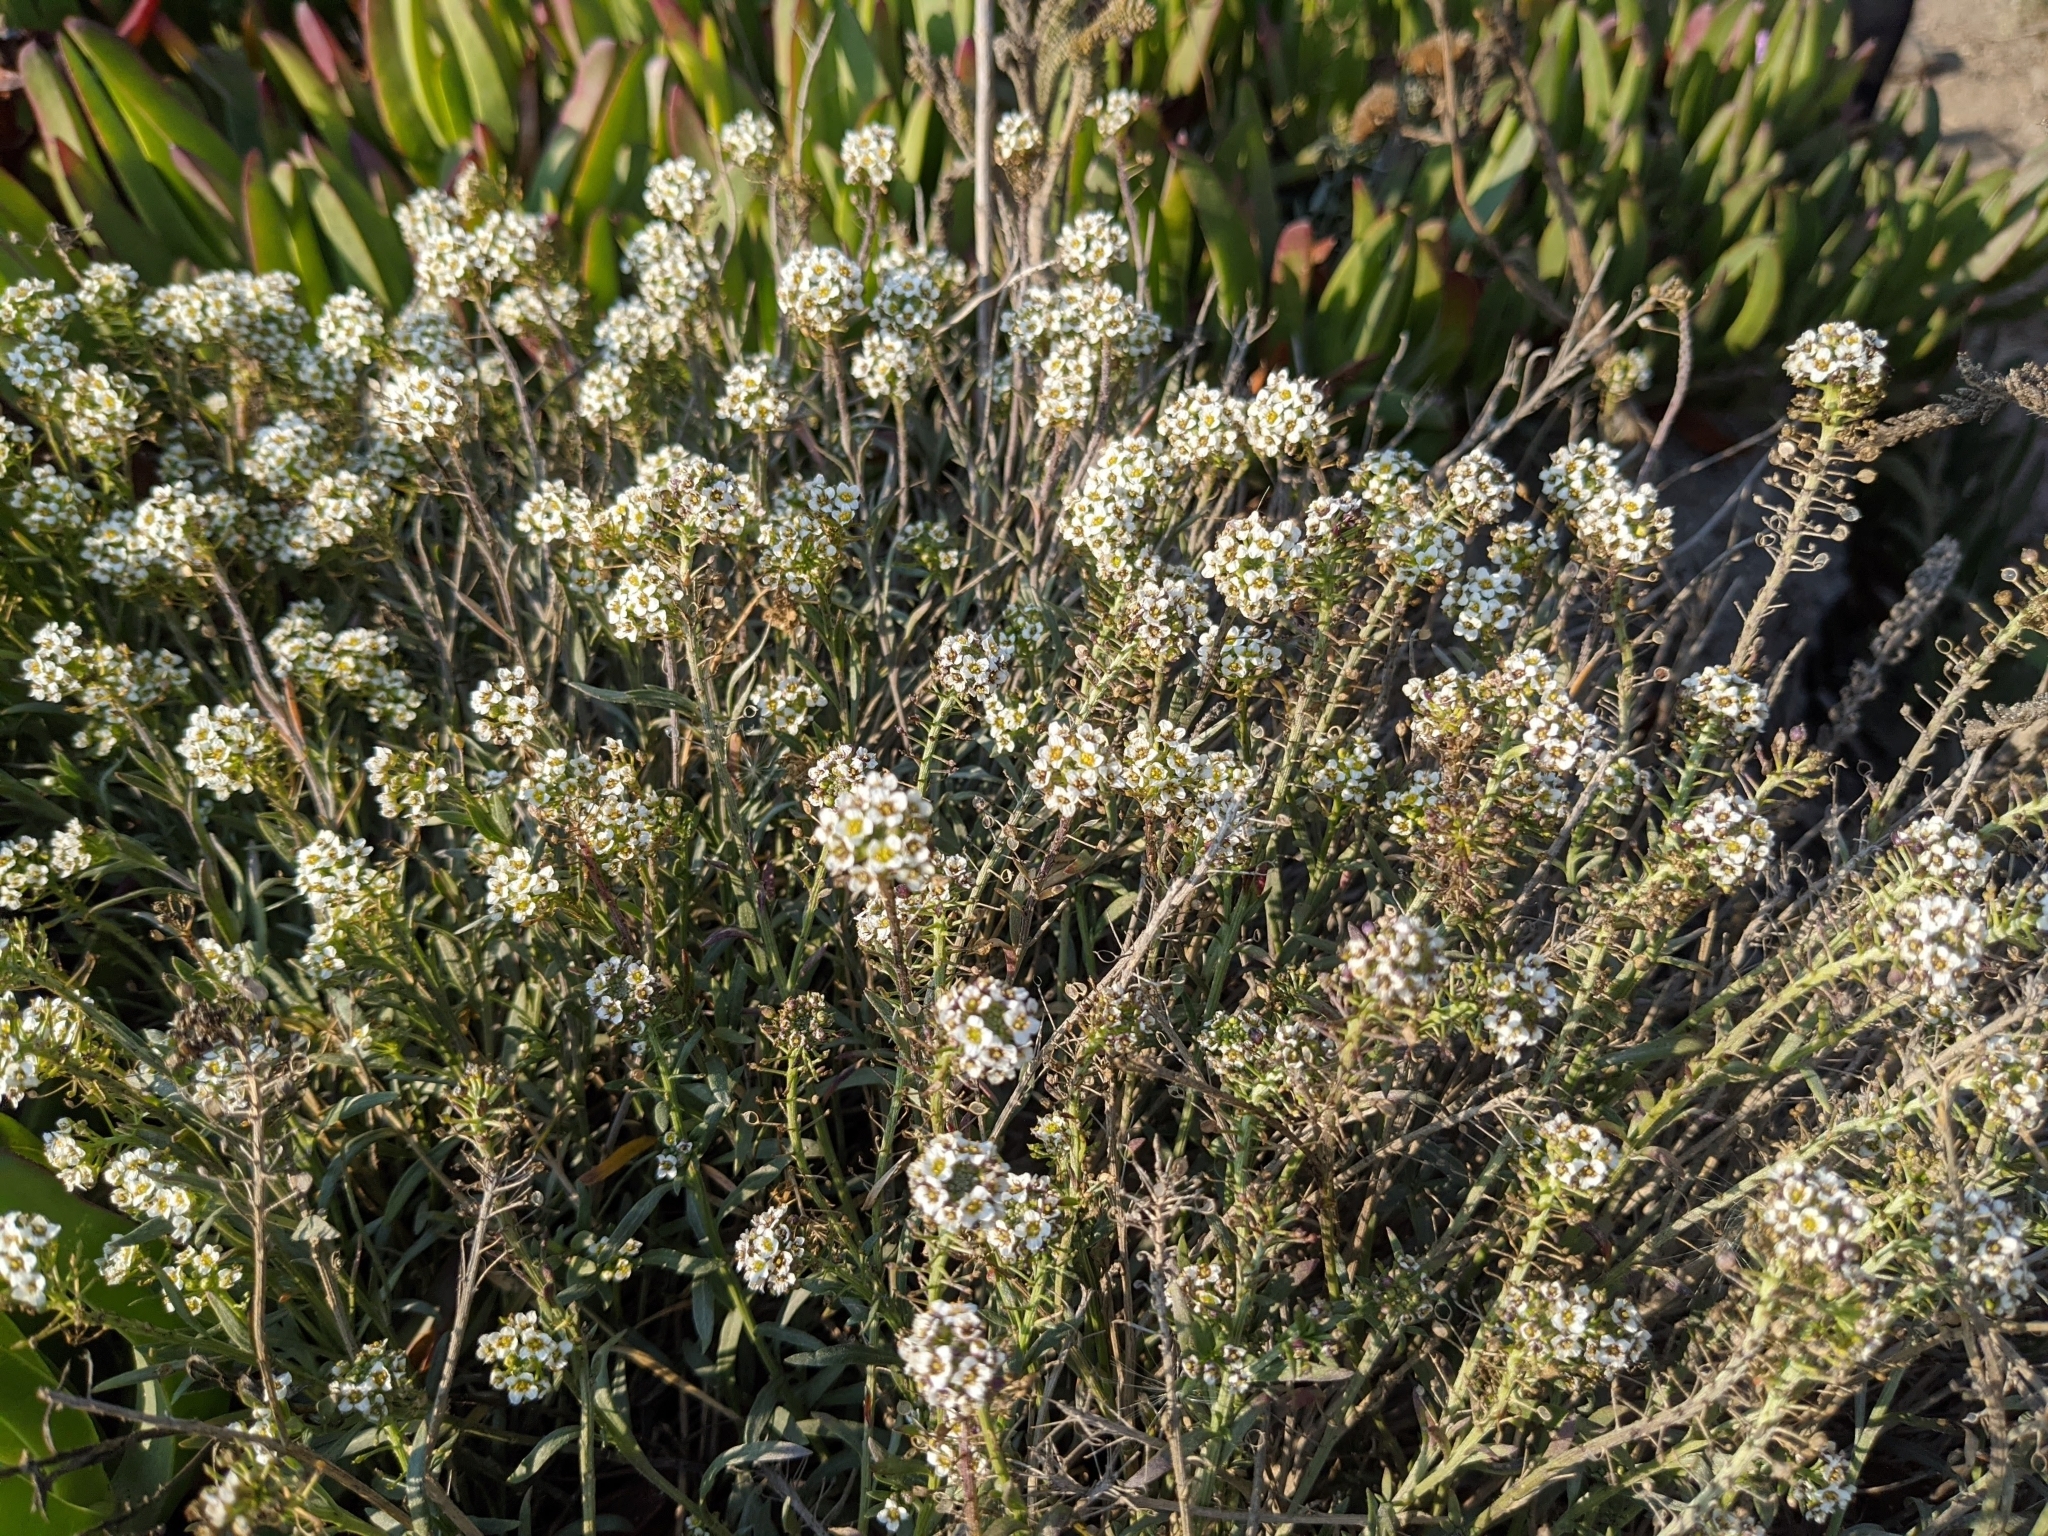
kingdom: Plantae
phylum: Tracheophyta
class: Magnoliopsida
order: Brassicales
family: Brassicaceae
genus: Lobularia
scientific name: Lobularia maritima
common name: Sweet alison
